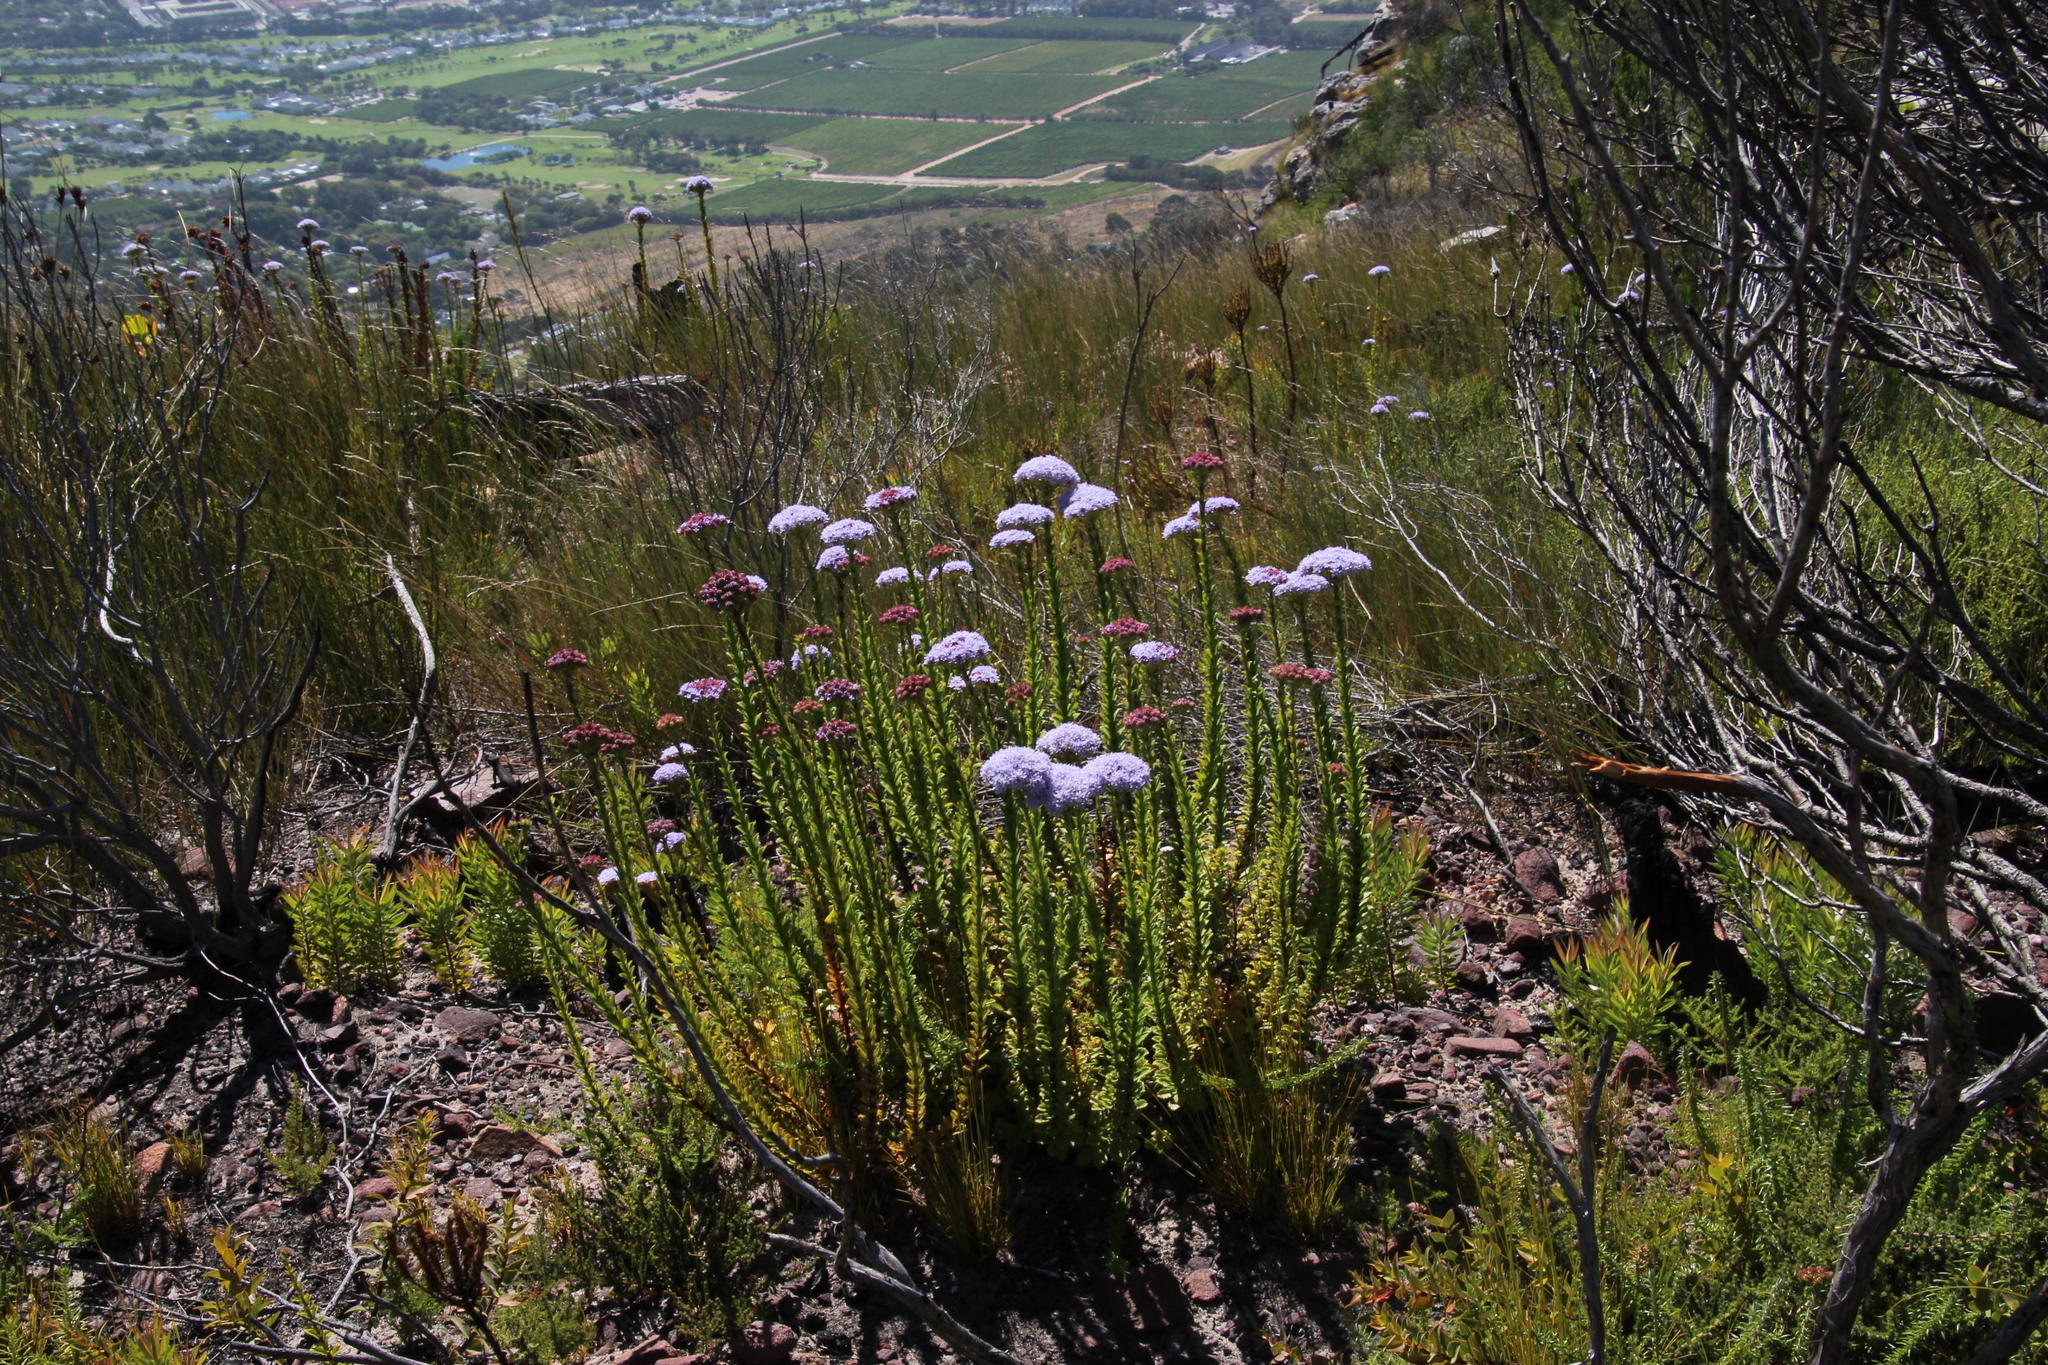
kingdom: Plantae
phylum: Tracheophyta
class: Magnoliopsida
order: Lamiales
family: Scrophulariaceae
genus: Pseudoselago
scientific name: Pseudoselago serrata
